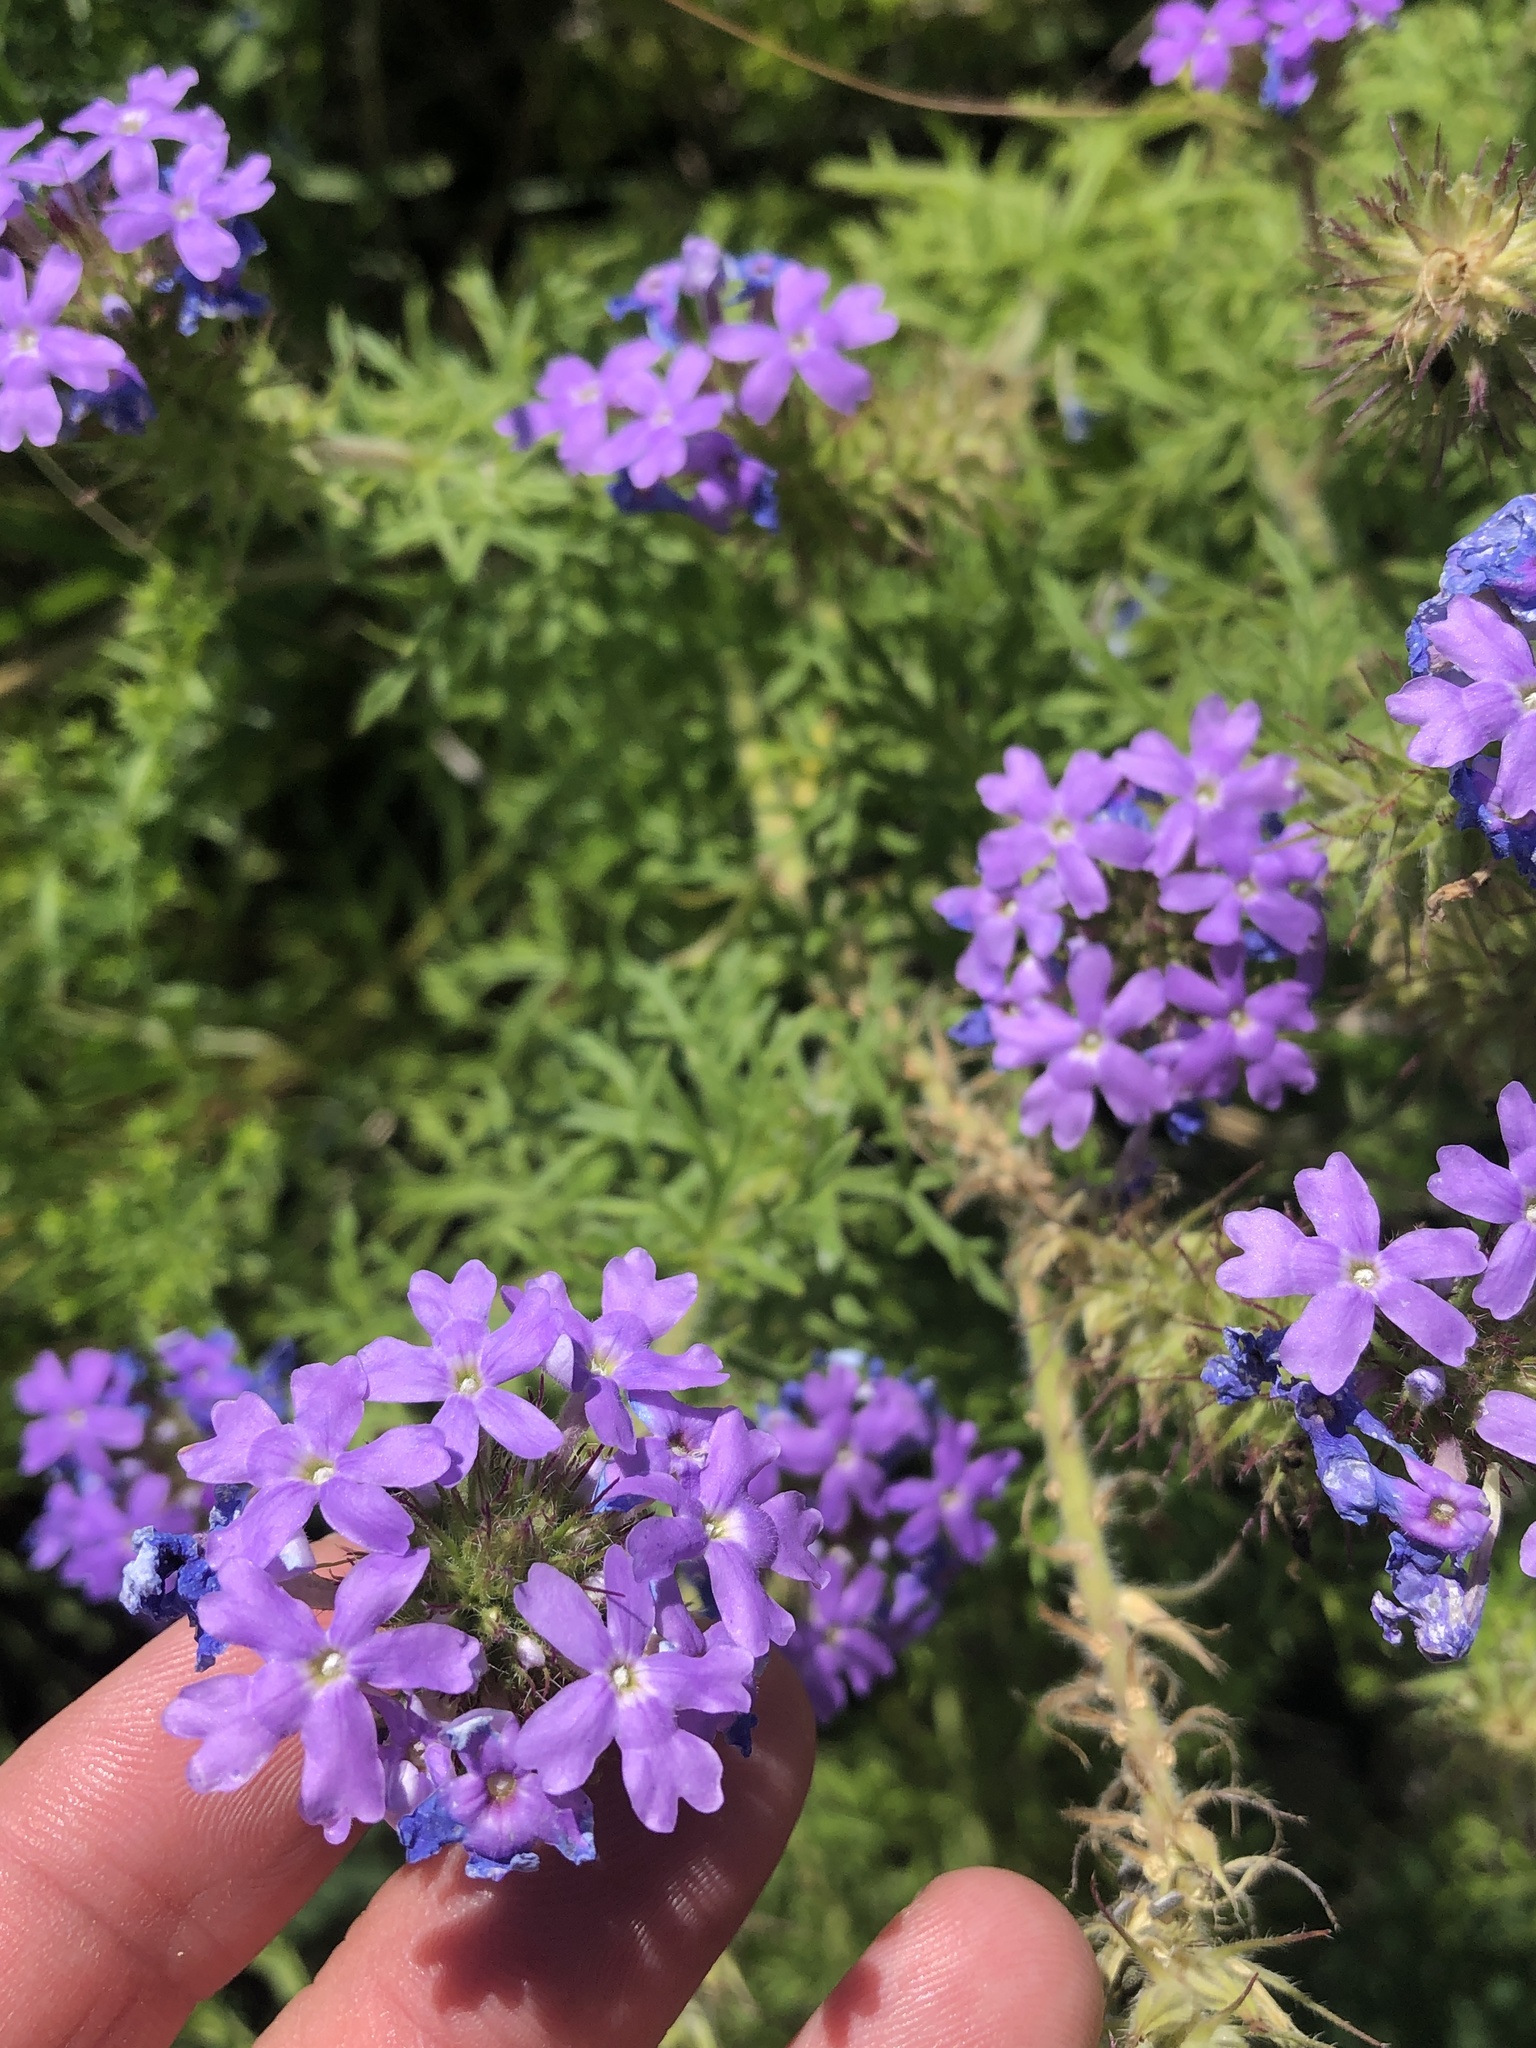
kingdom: Plantae
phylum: Tracheophyta
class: Magnoliopsida
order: Lamiales
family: Verbenaceae
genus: Verbena
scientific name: Verbena bipinnatifida
